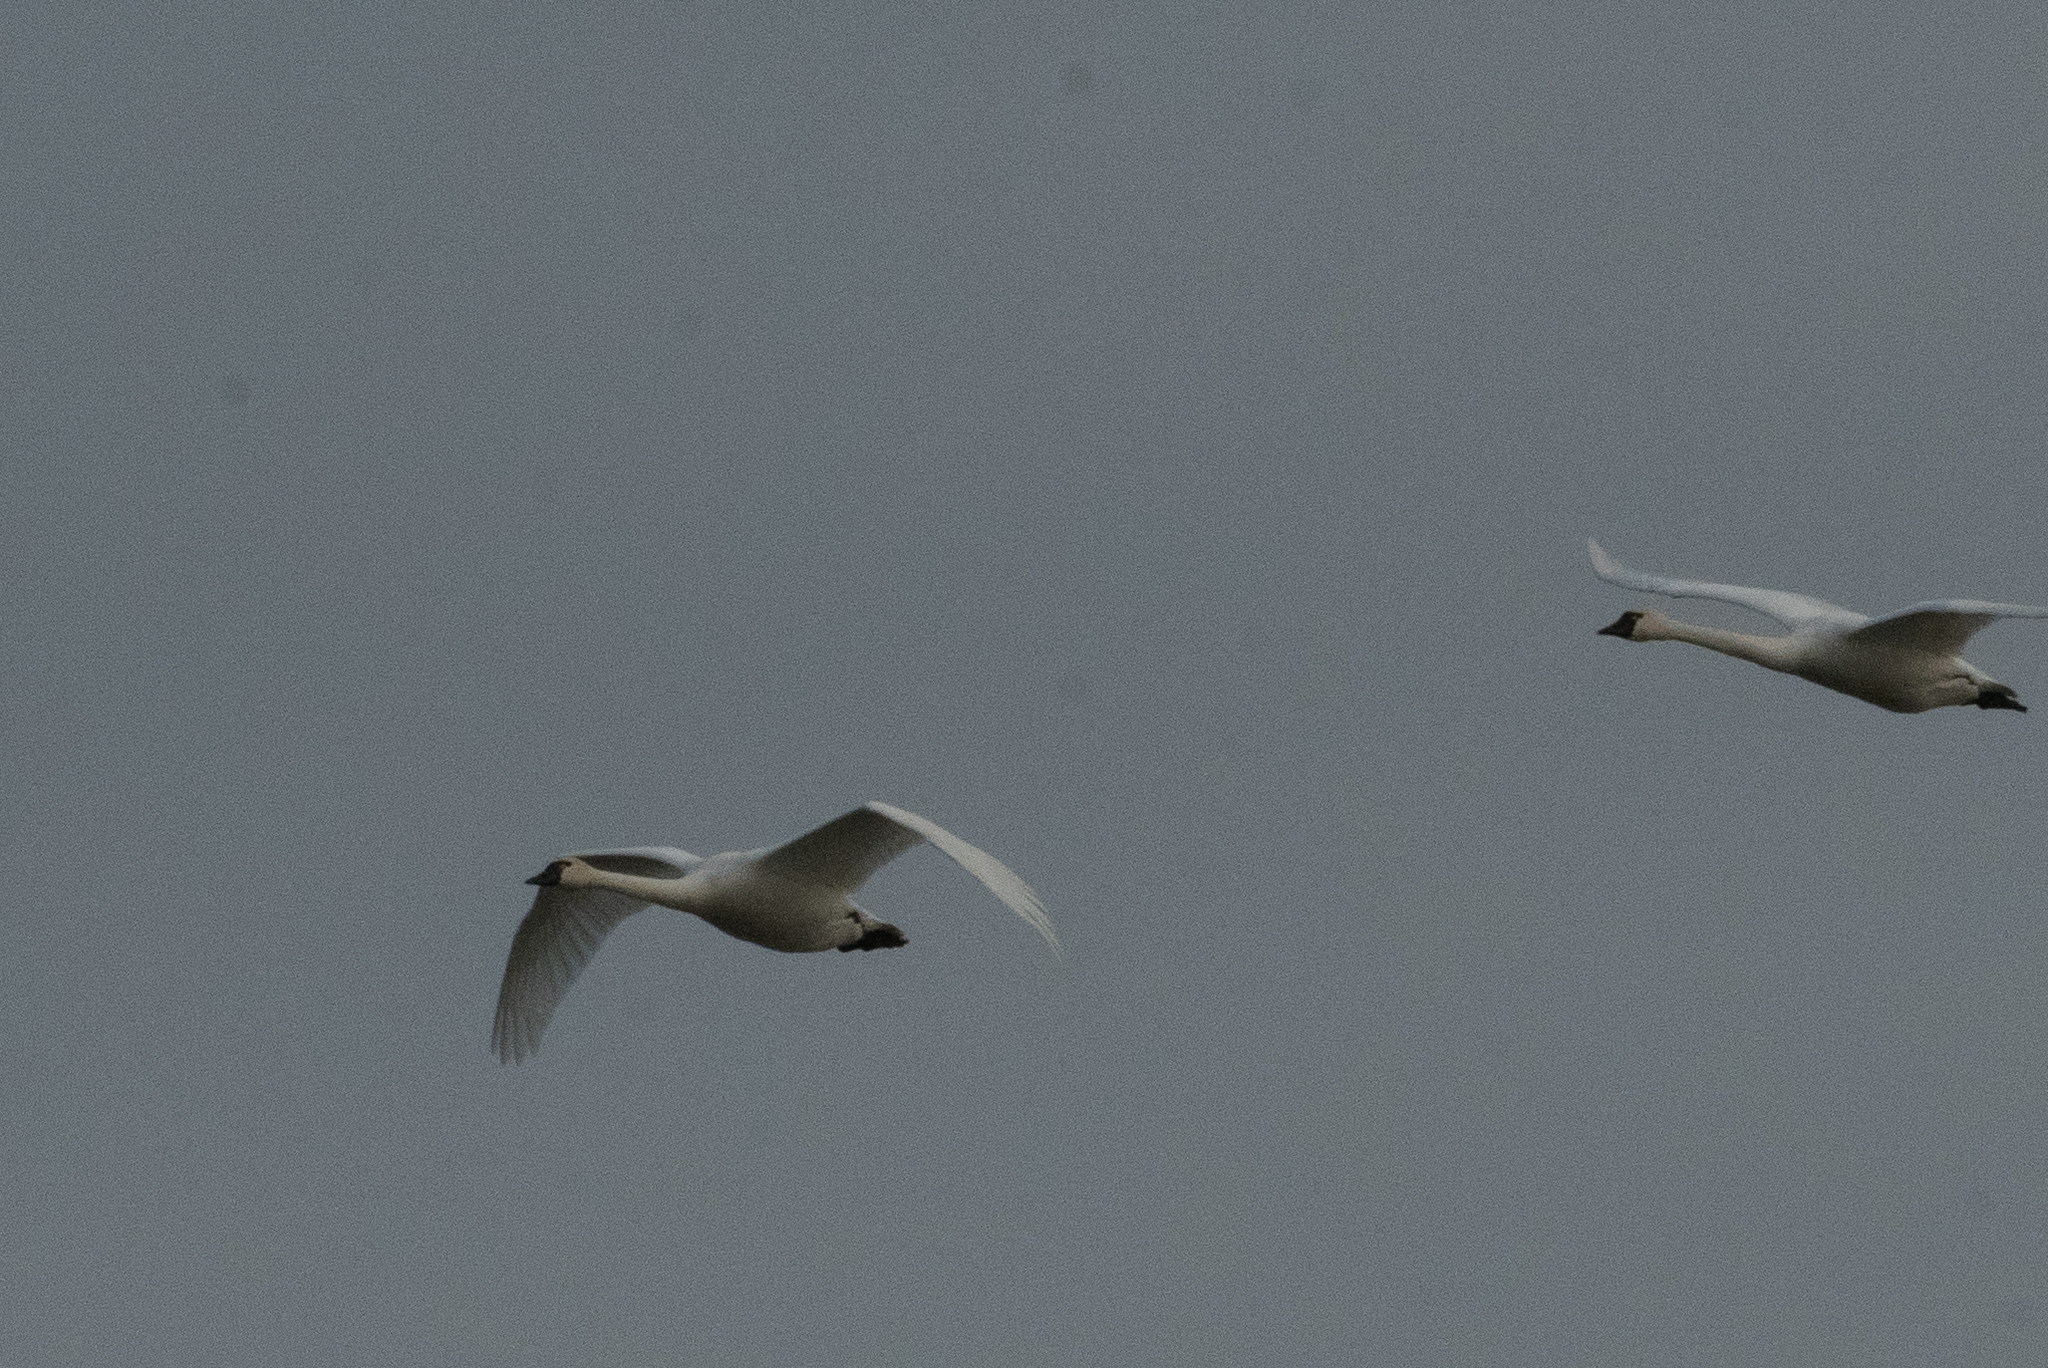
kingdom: Animalia
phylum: Chordata
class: Aves
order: Anseriformes
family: Anatidae
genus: Cygnus
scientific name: Cygnus columbianus
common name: Tundra swan
